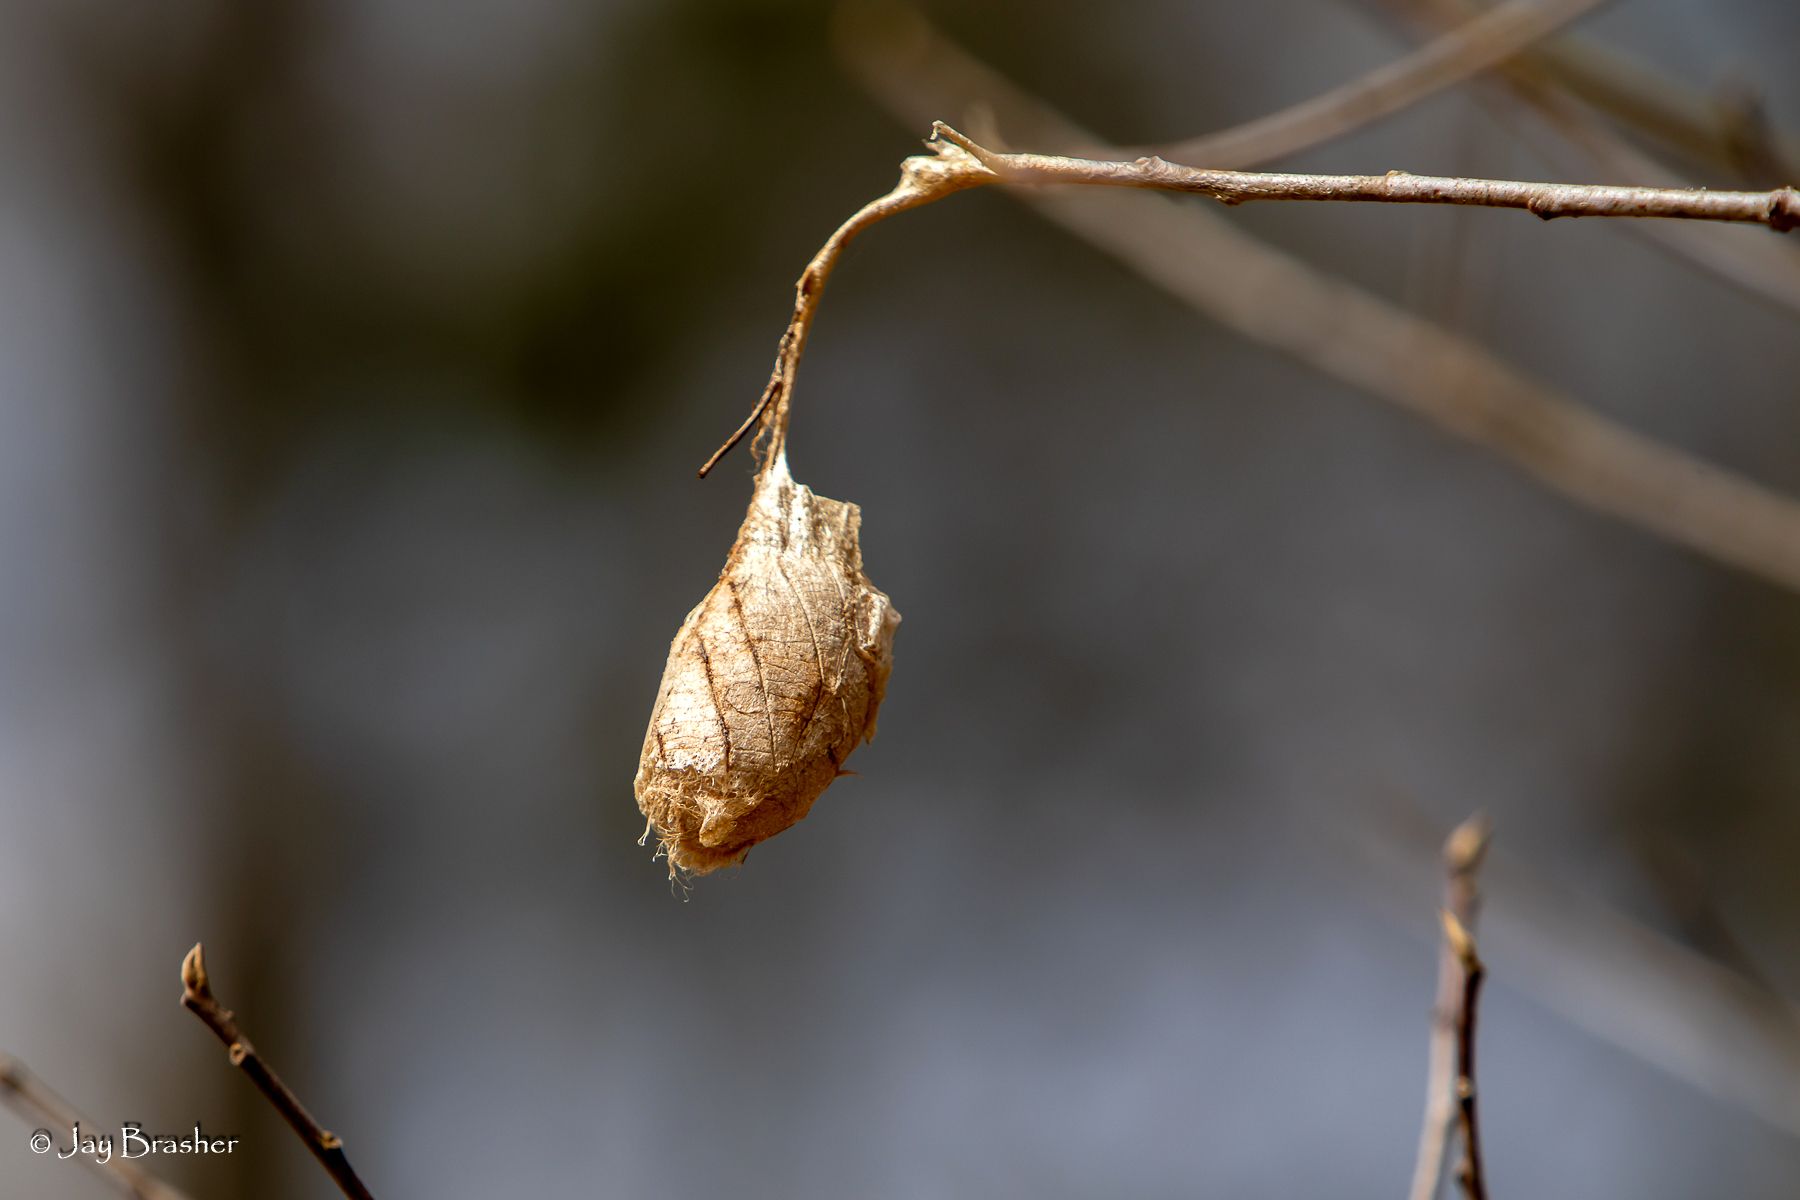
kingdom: Animalia
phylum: Arthropoda
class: Insecta
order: Lepidoptera
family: Saturniidae
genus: Antheraea
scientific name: Antheraea polyphemus
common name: Polyphemus moth
